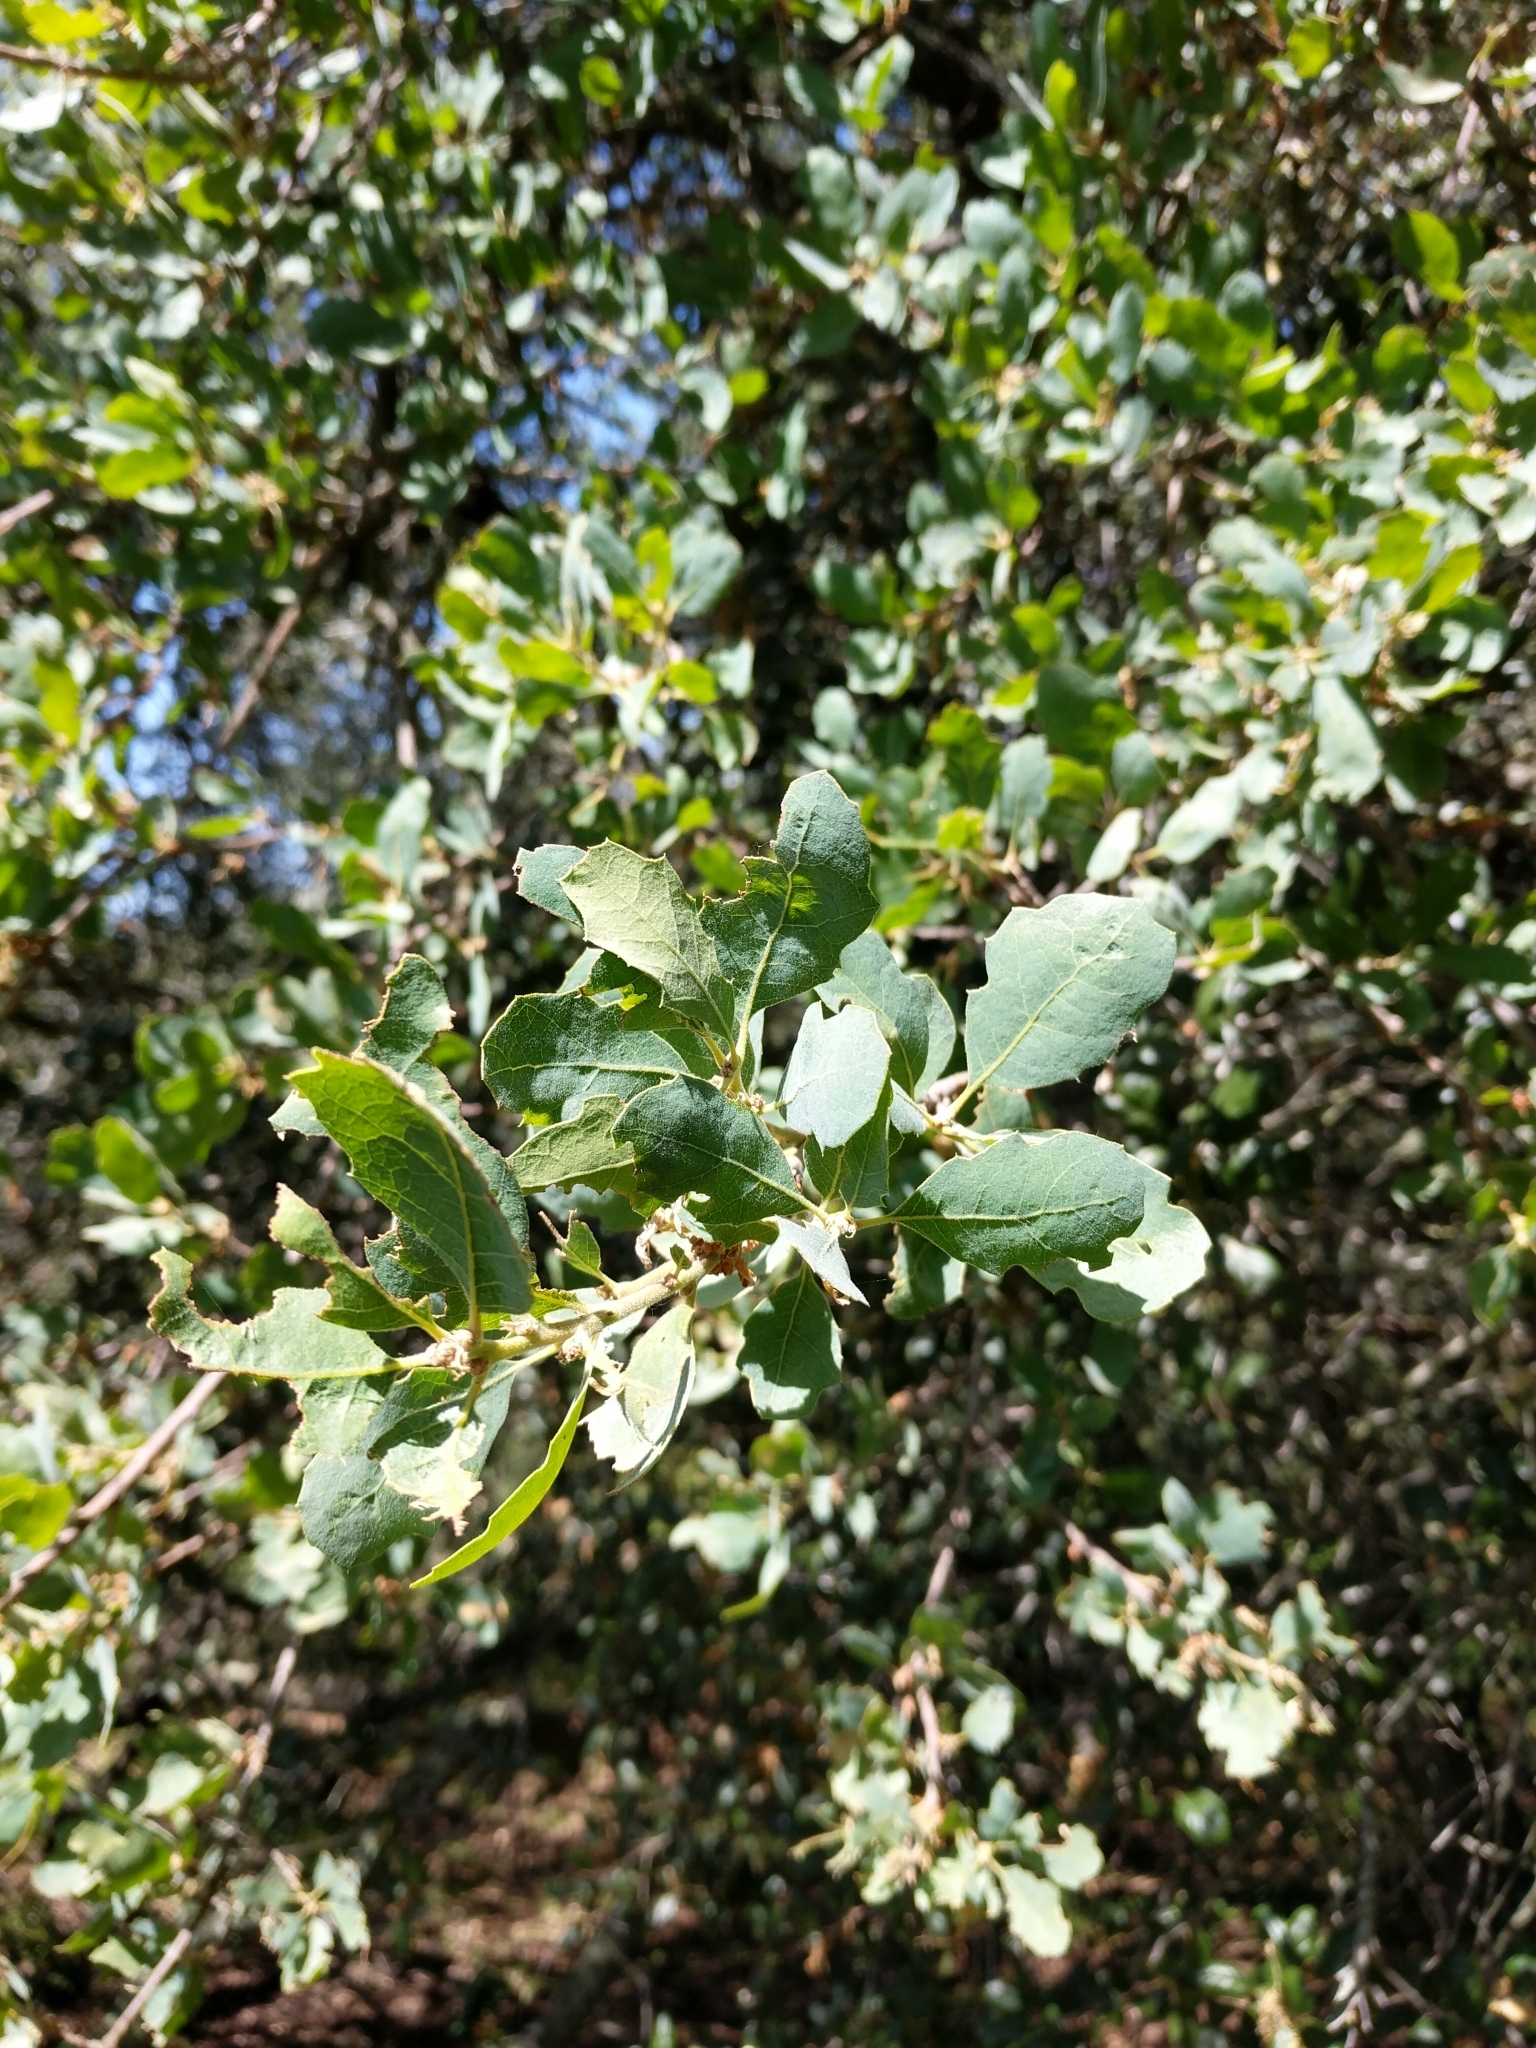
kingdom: Plantae
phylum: Tracheophyta
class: Magnoliopsida
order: Fagales
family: Fagaceae
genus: Quercus
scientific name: Quercus douglasii
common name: Blue oak
